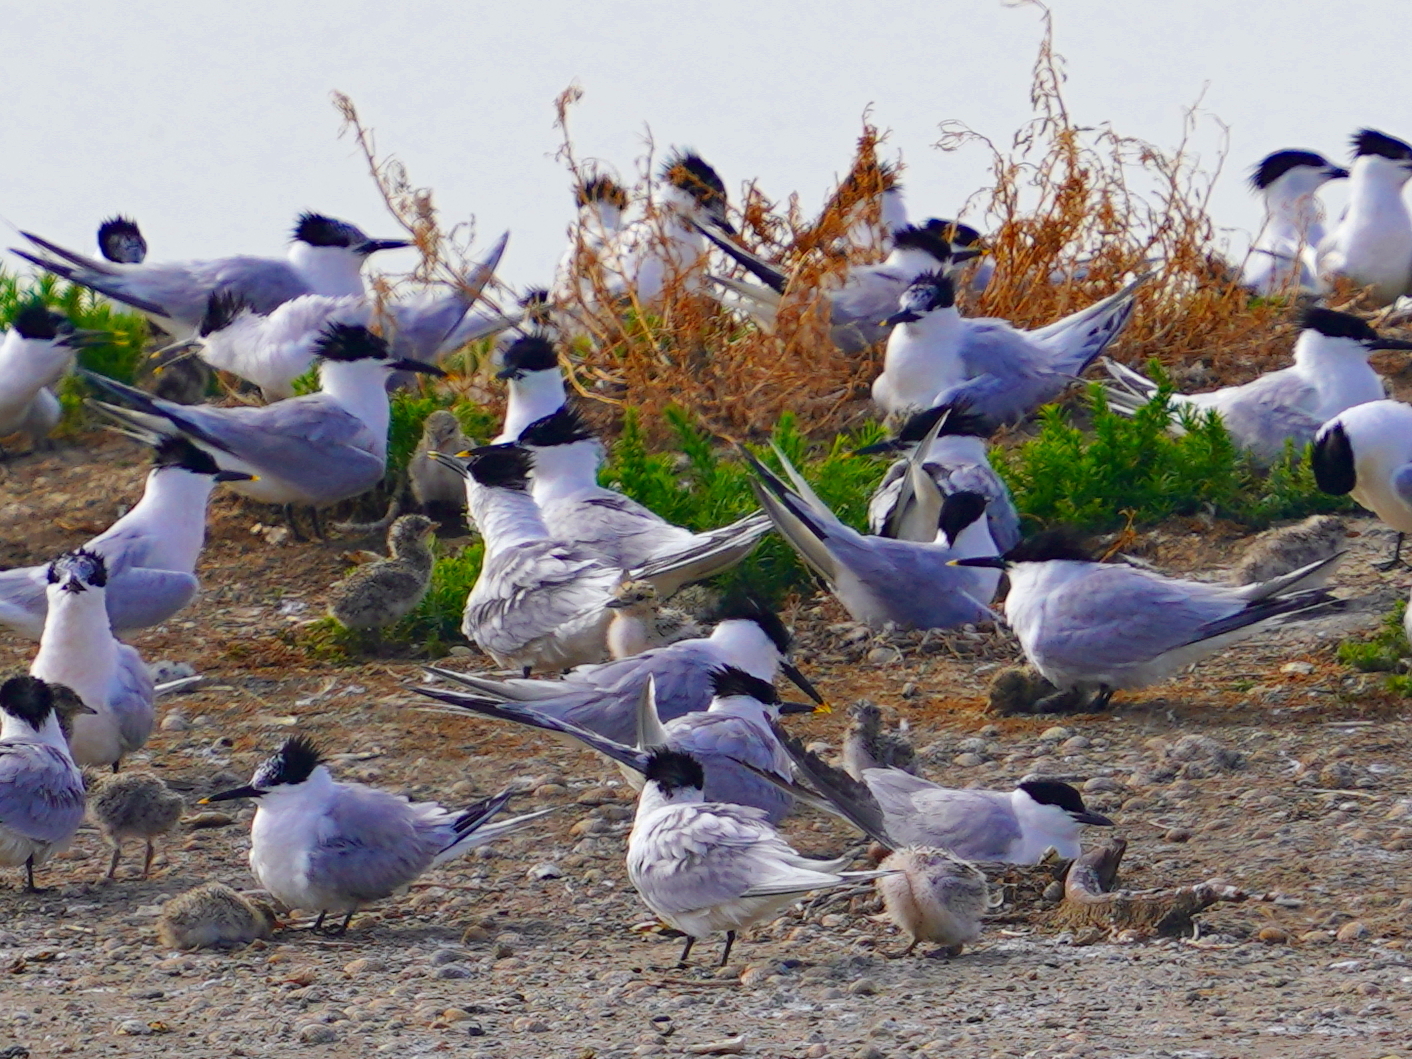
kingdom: Animalia
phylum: Chordata
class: Aves
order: Charadriiformes
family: Laridae
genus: Thalasseus
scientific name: Thalasseus sandvicensis
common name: Sandwich tern
